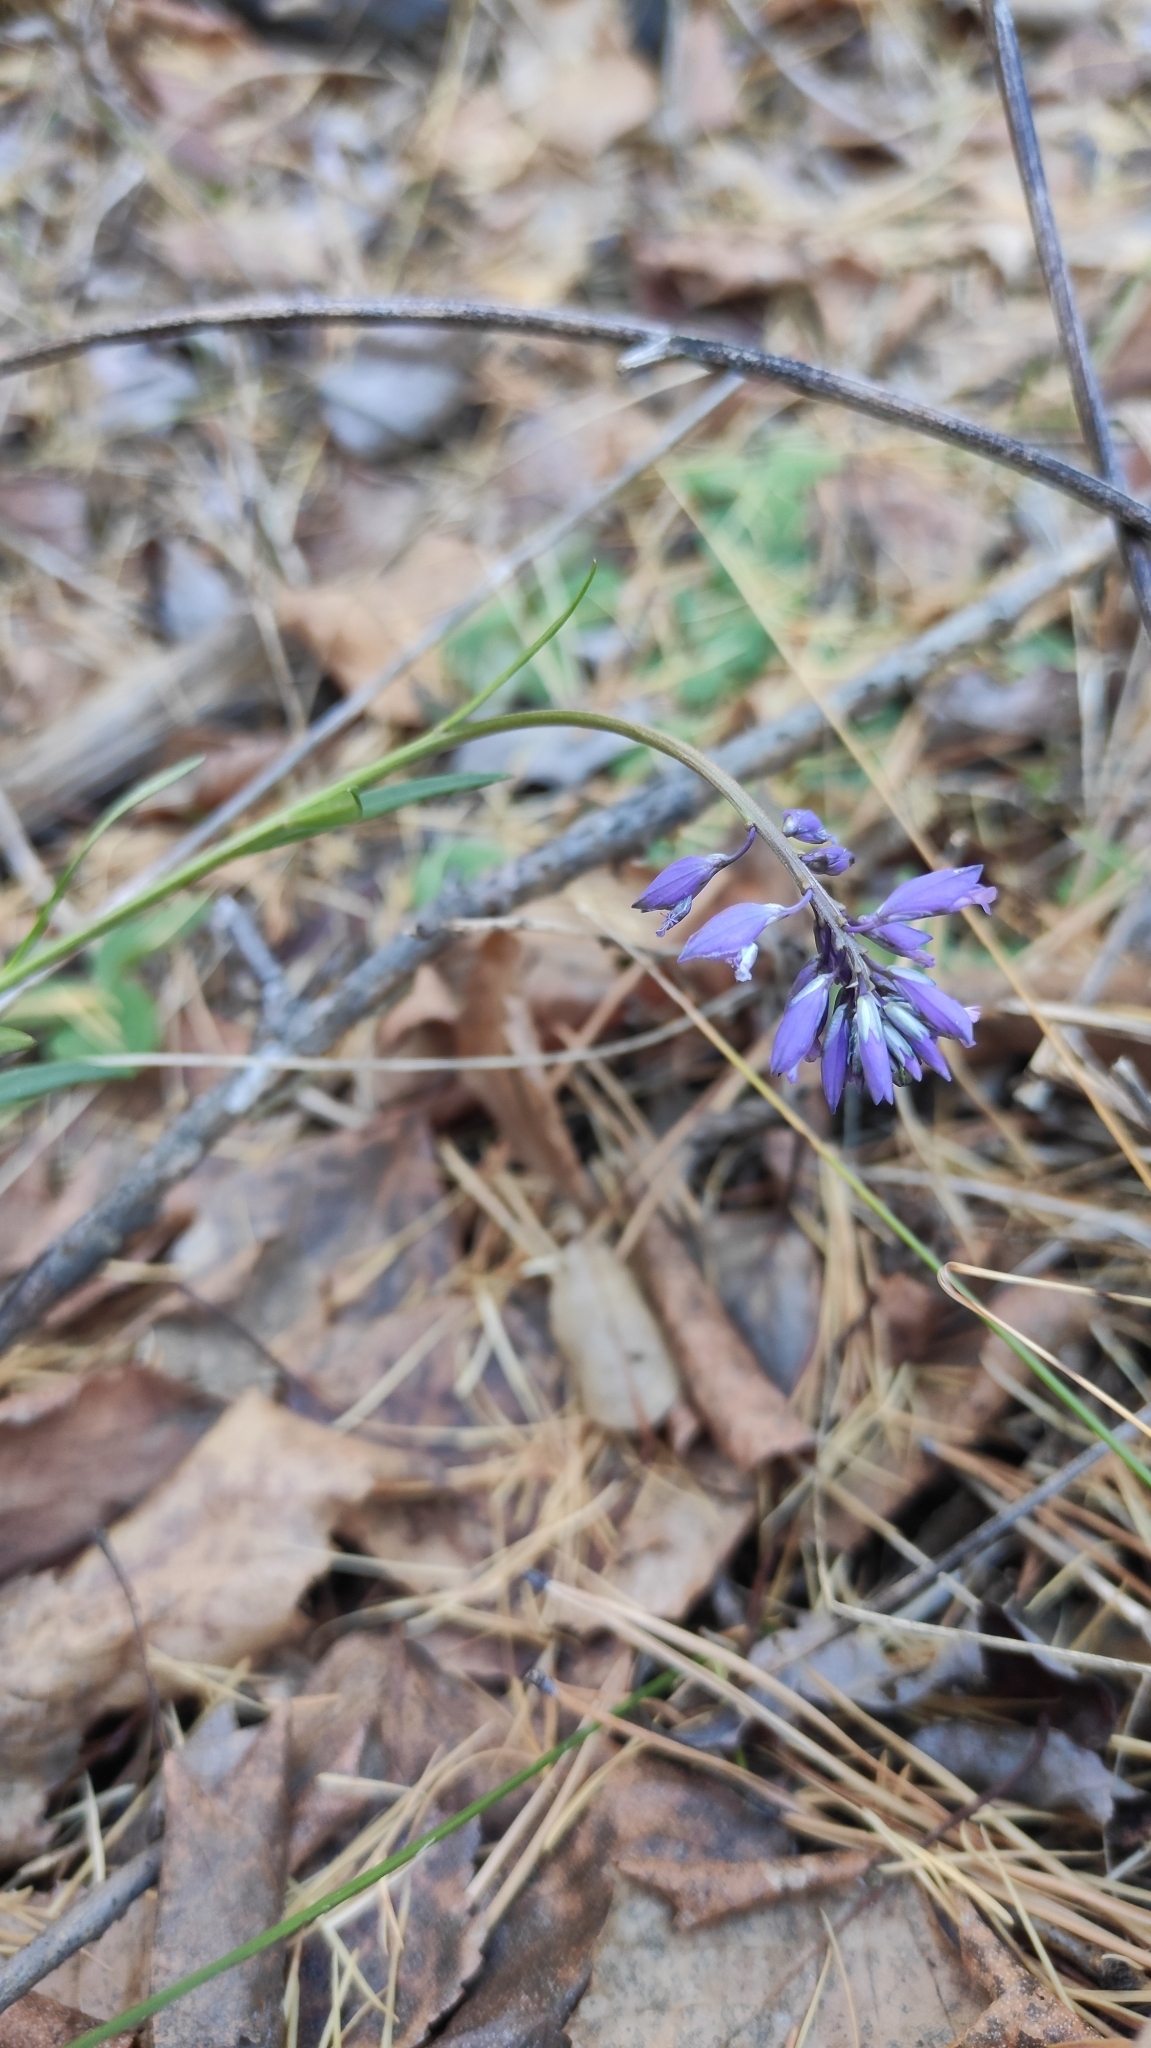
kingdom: Plantae
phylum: Tracheophyta
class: Magnoliopsida
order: Fabales
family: Polygalaceae
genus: Polygala
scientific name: Polygala comosa
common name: Tufted milkwort
